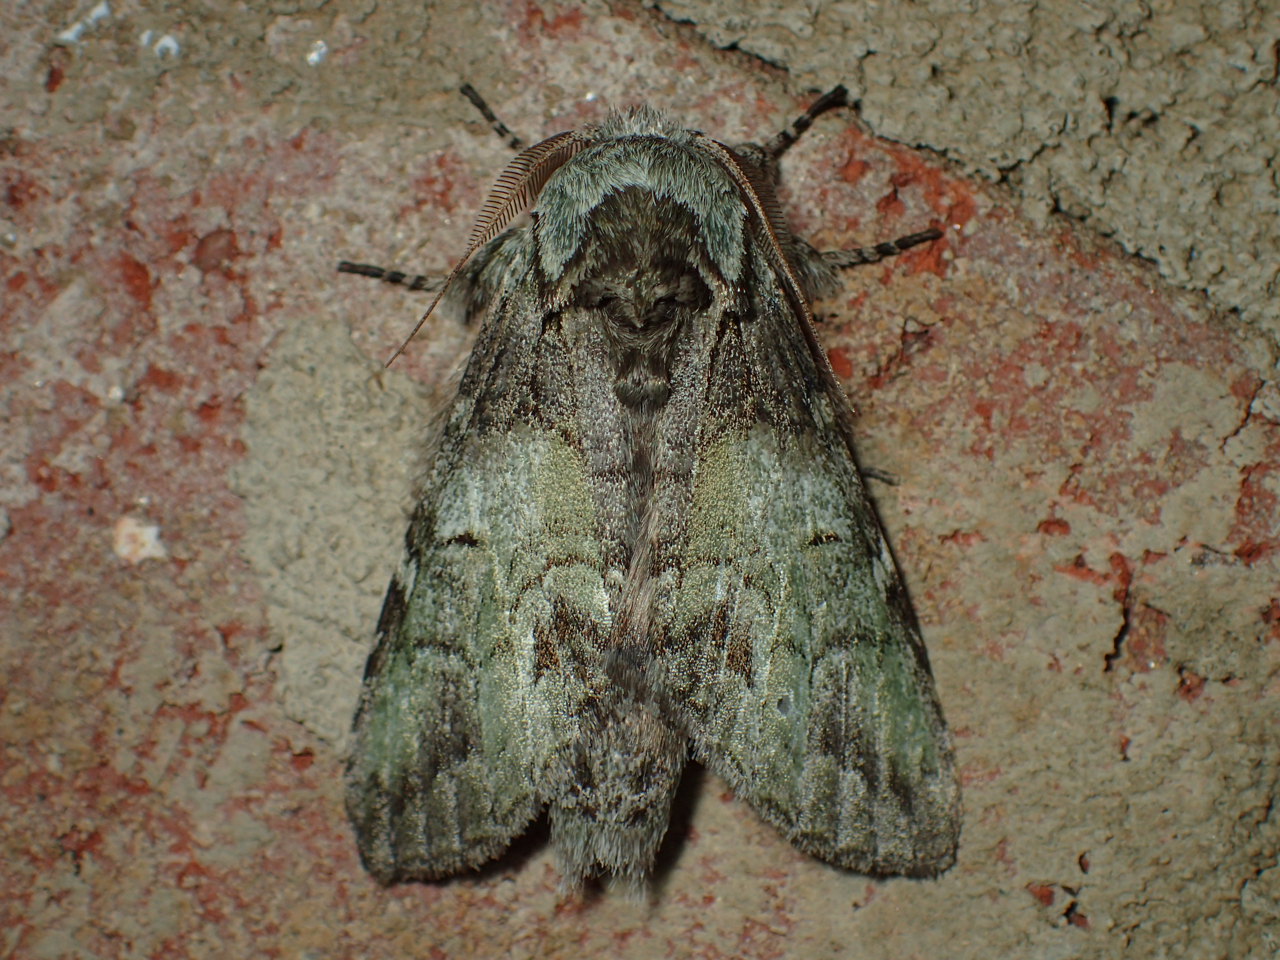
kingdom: Animalia
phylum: Arthropoda
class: Insecta
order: Lepidoptera
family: Notodontidae
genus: Macrurocampa
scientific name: Macrurocampa marthesia
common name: Mottled prominent
